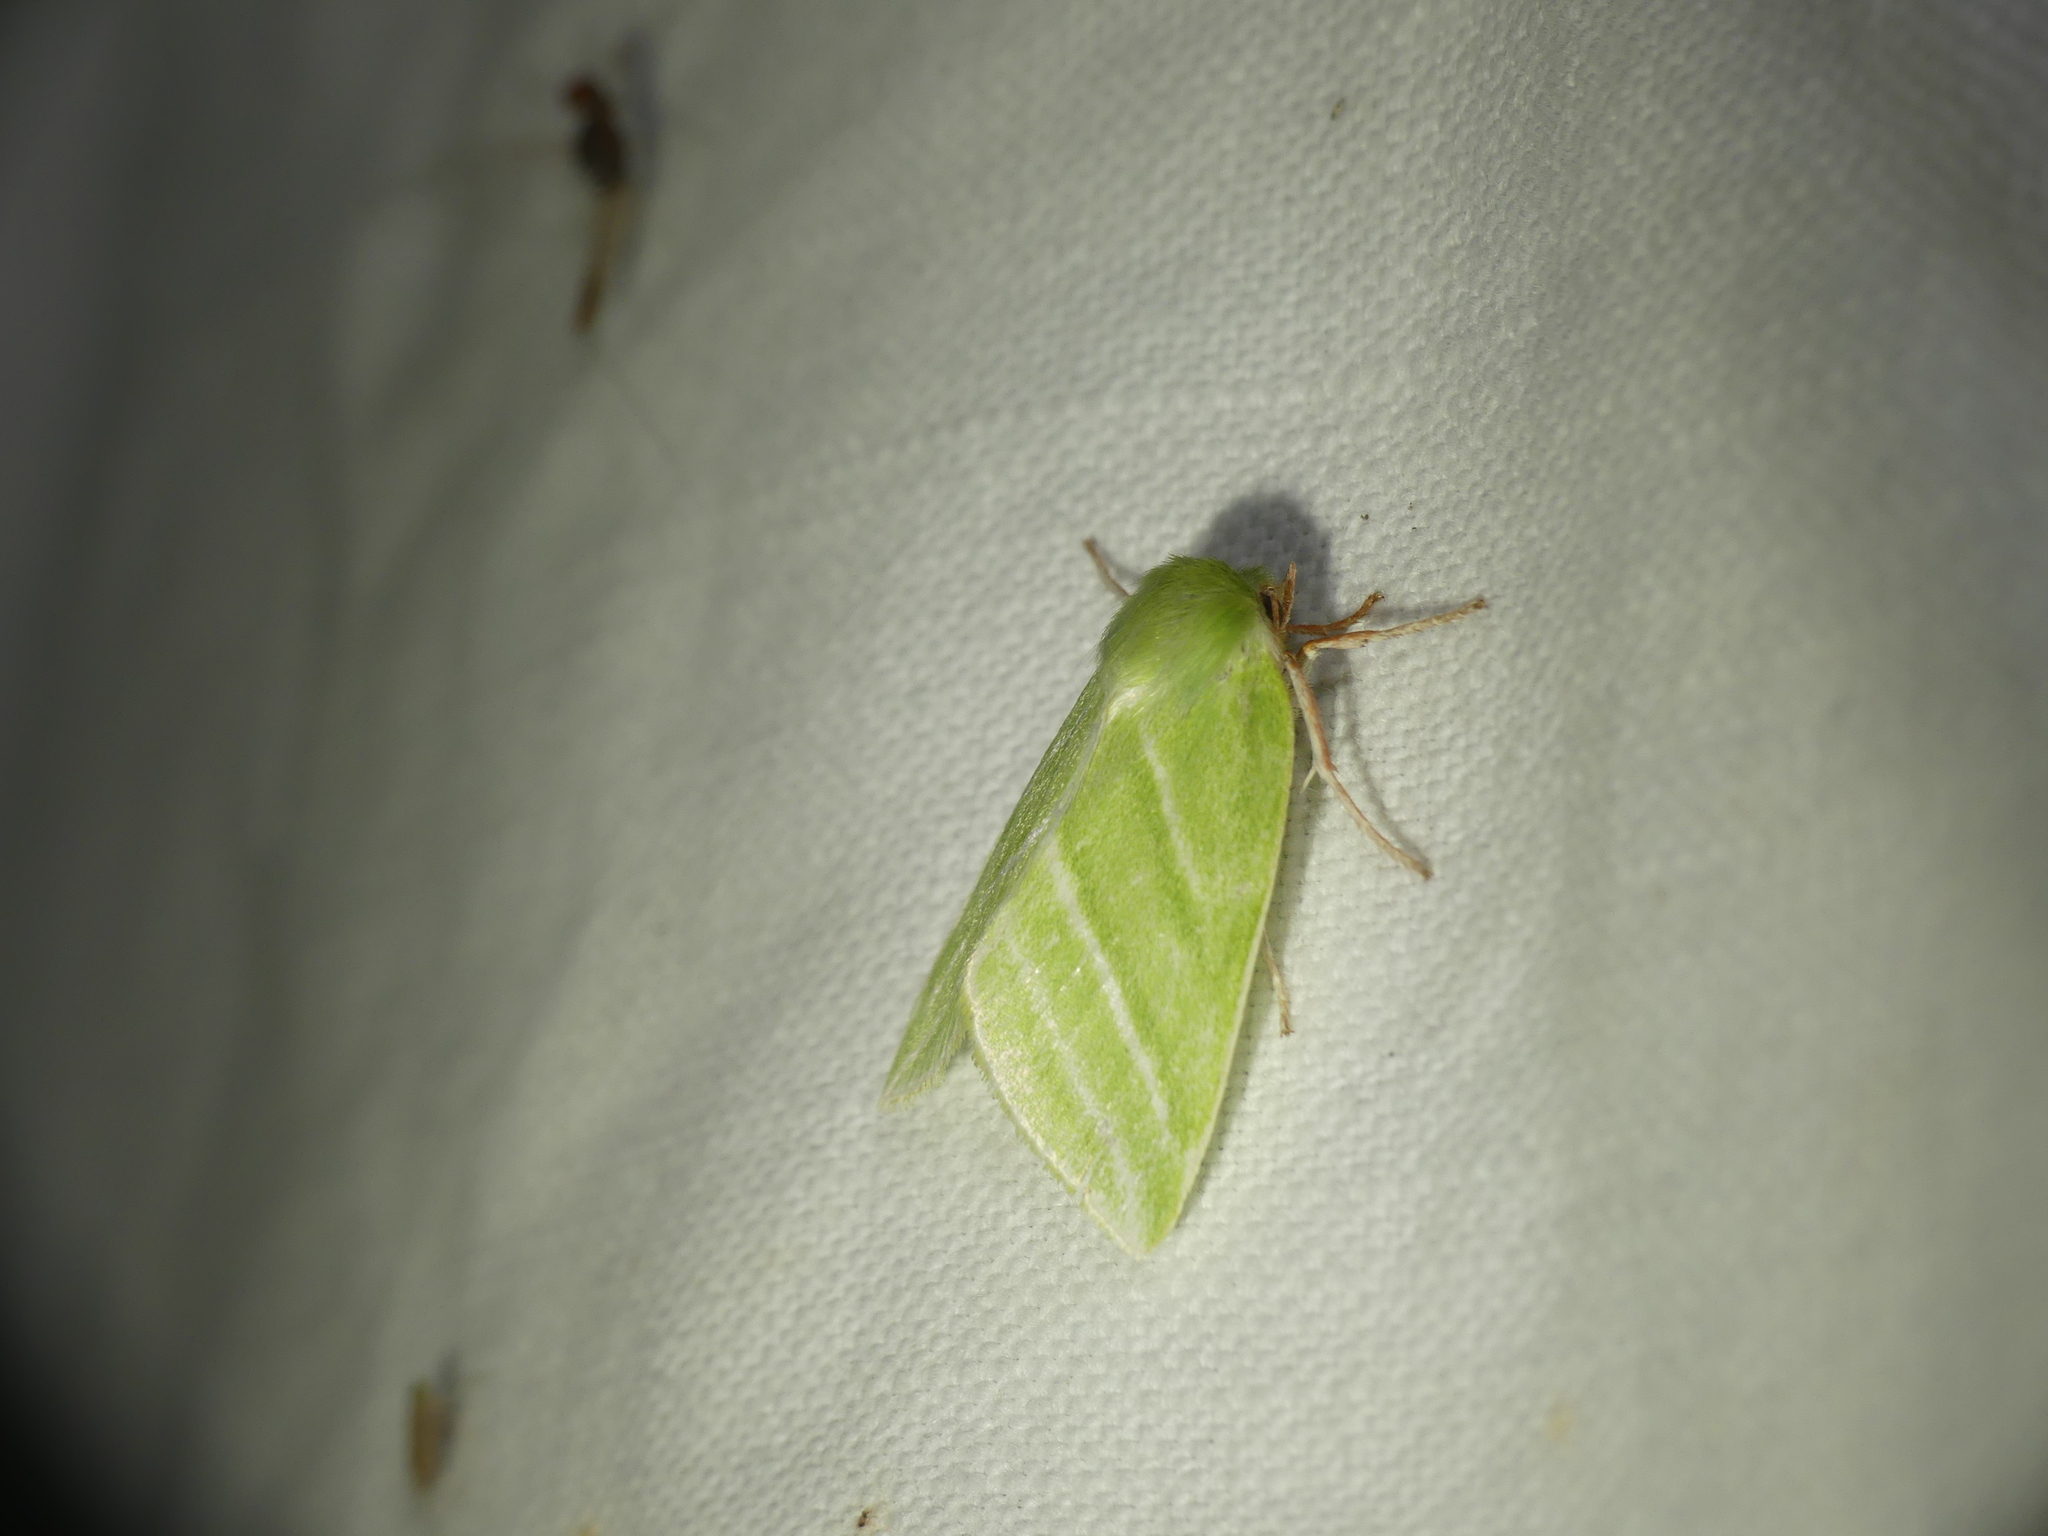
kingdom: Animalia
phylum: Arthropoda
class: Insecta
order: Lepidoptera
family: Nolidae
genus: Pseudoips
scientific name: Pseudoips prasinana
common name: Green silver-lines
